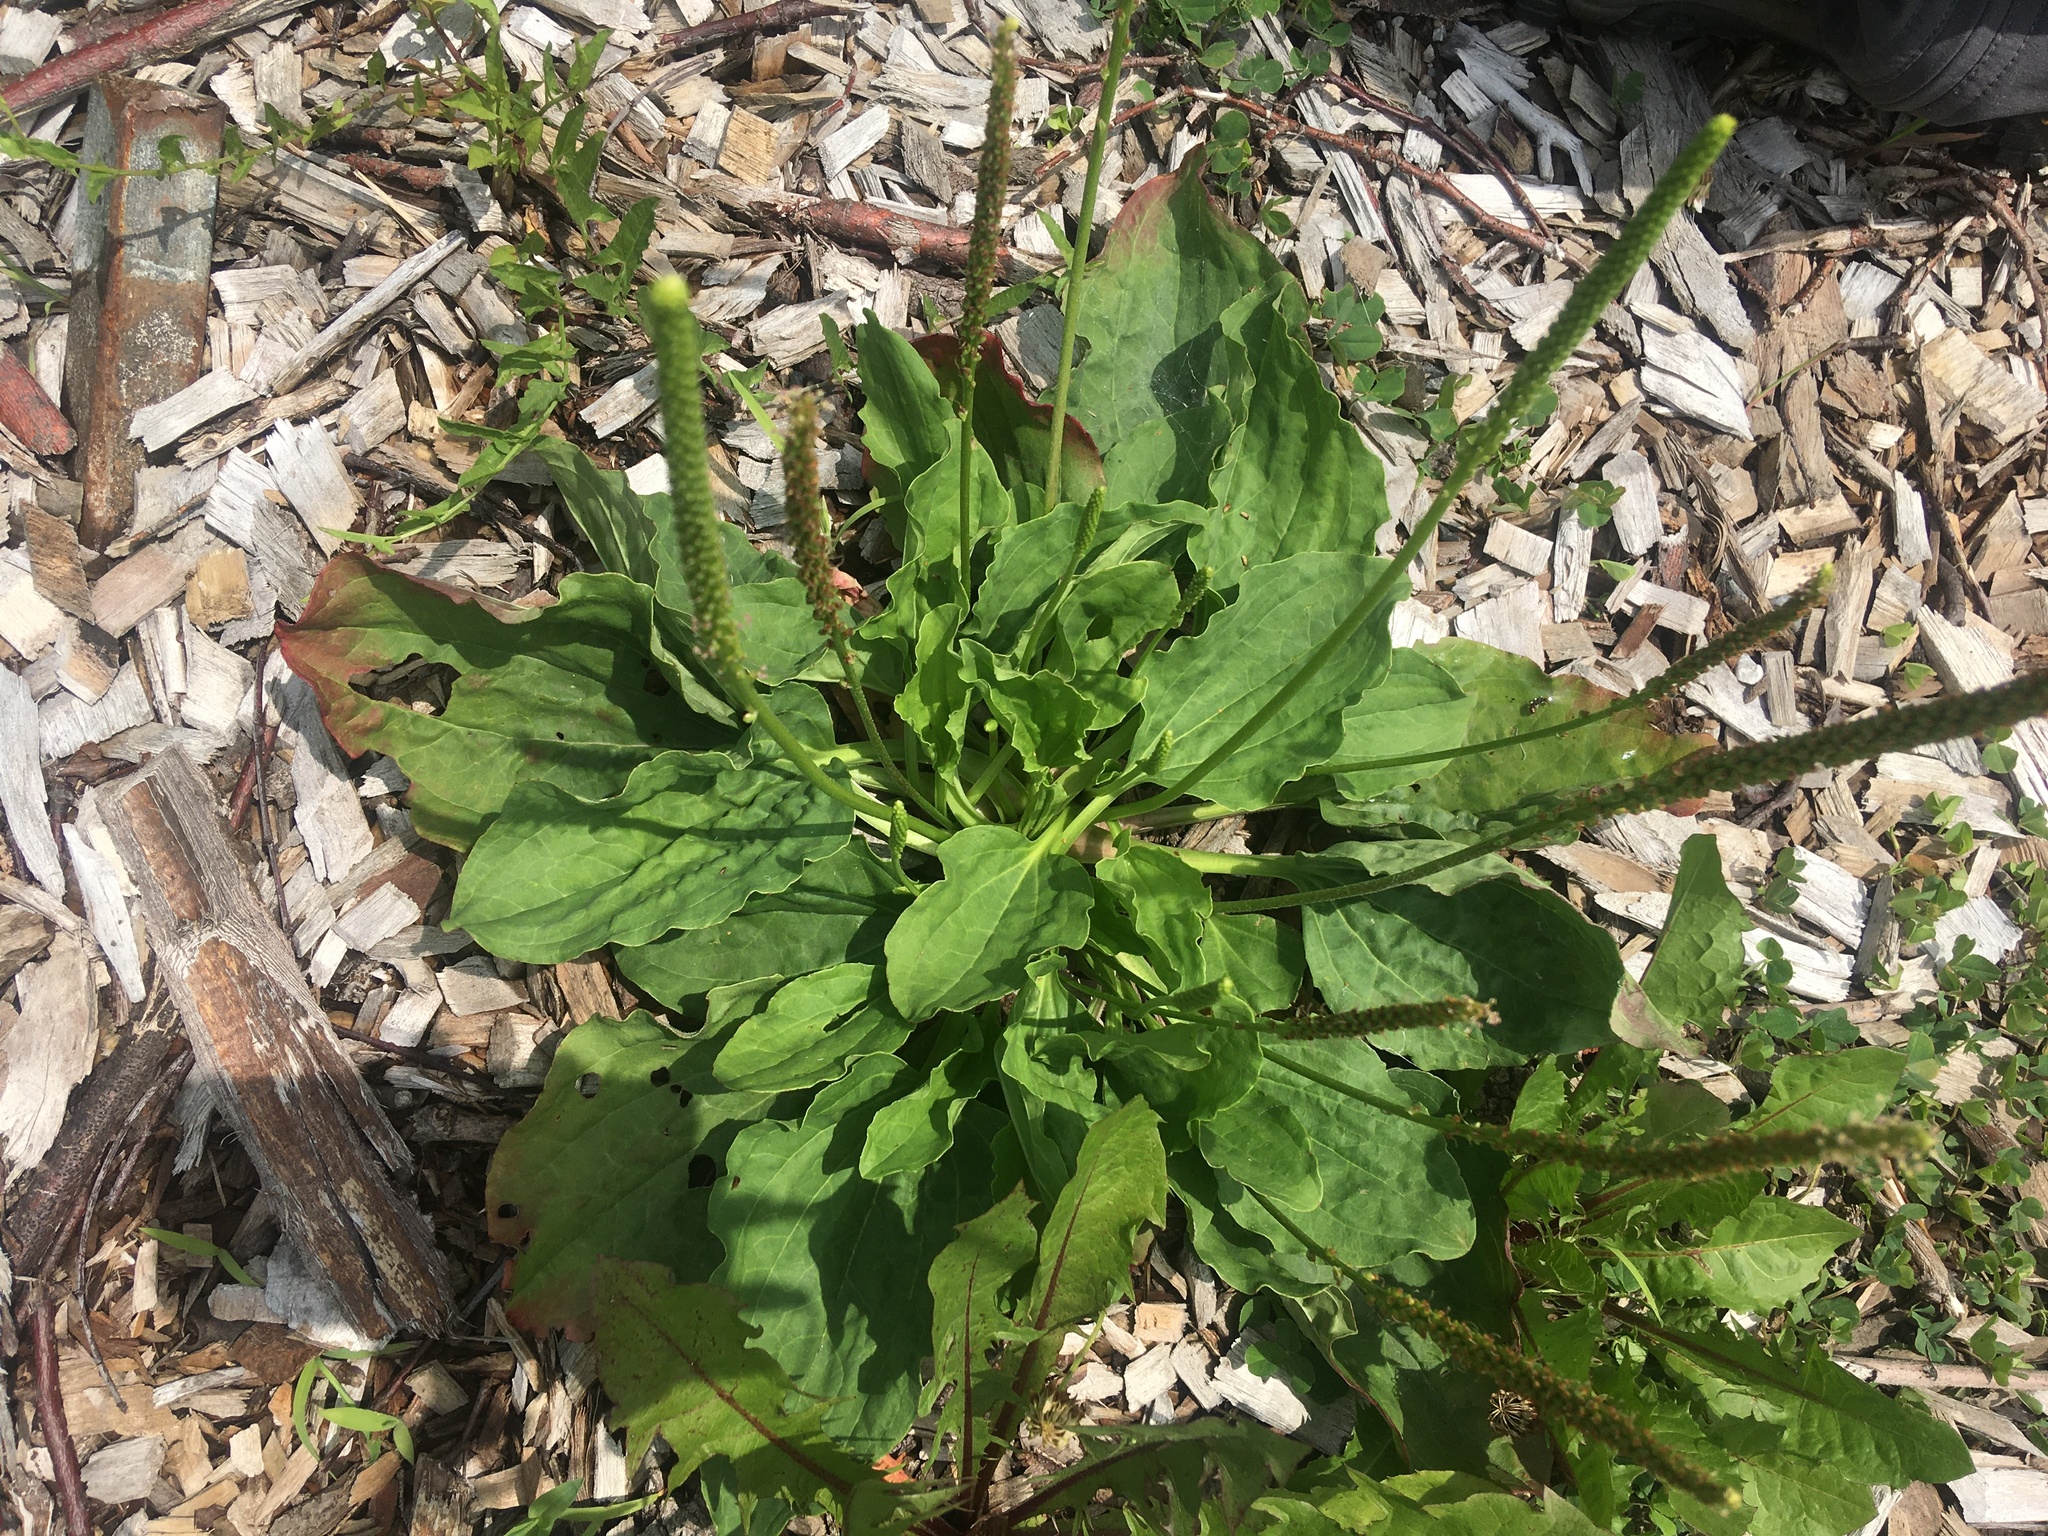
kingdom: Plantae
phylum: Tracheophyta
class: Magnoliopsida
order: Lamiales
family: Plantaginaceae
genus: Plantago
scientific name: Plantago major
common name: Common plantain
